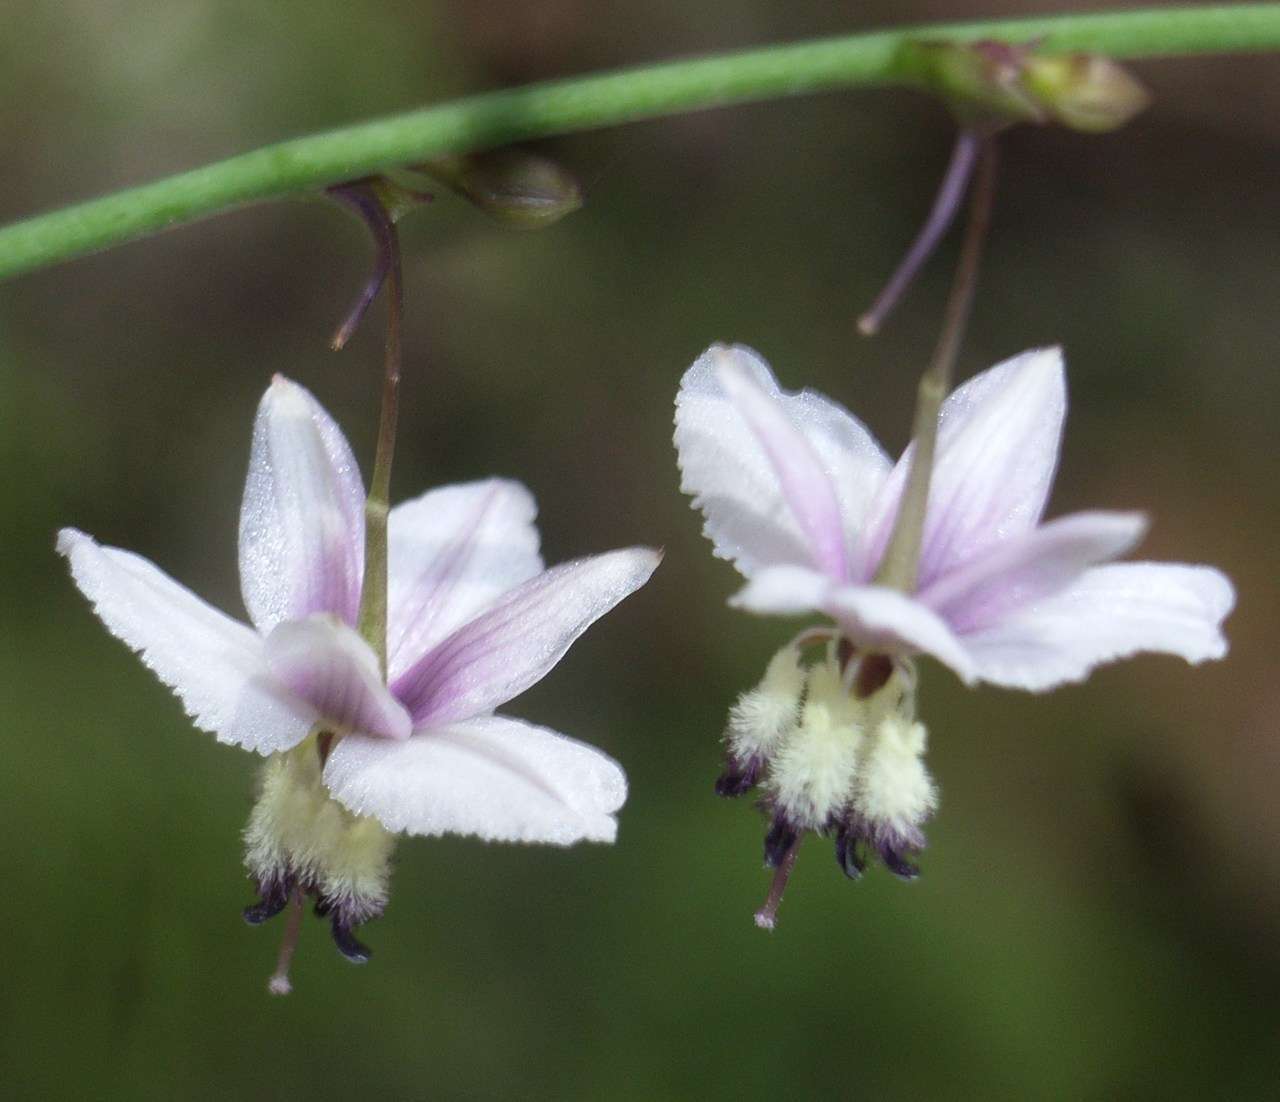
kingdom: Plantae
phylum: Tracheophyta
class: Liliopsida
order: Asparagales
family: Asparagaceae
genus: Arthropodium
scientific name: Arthropodium milleflorum
